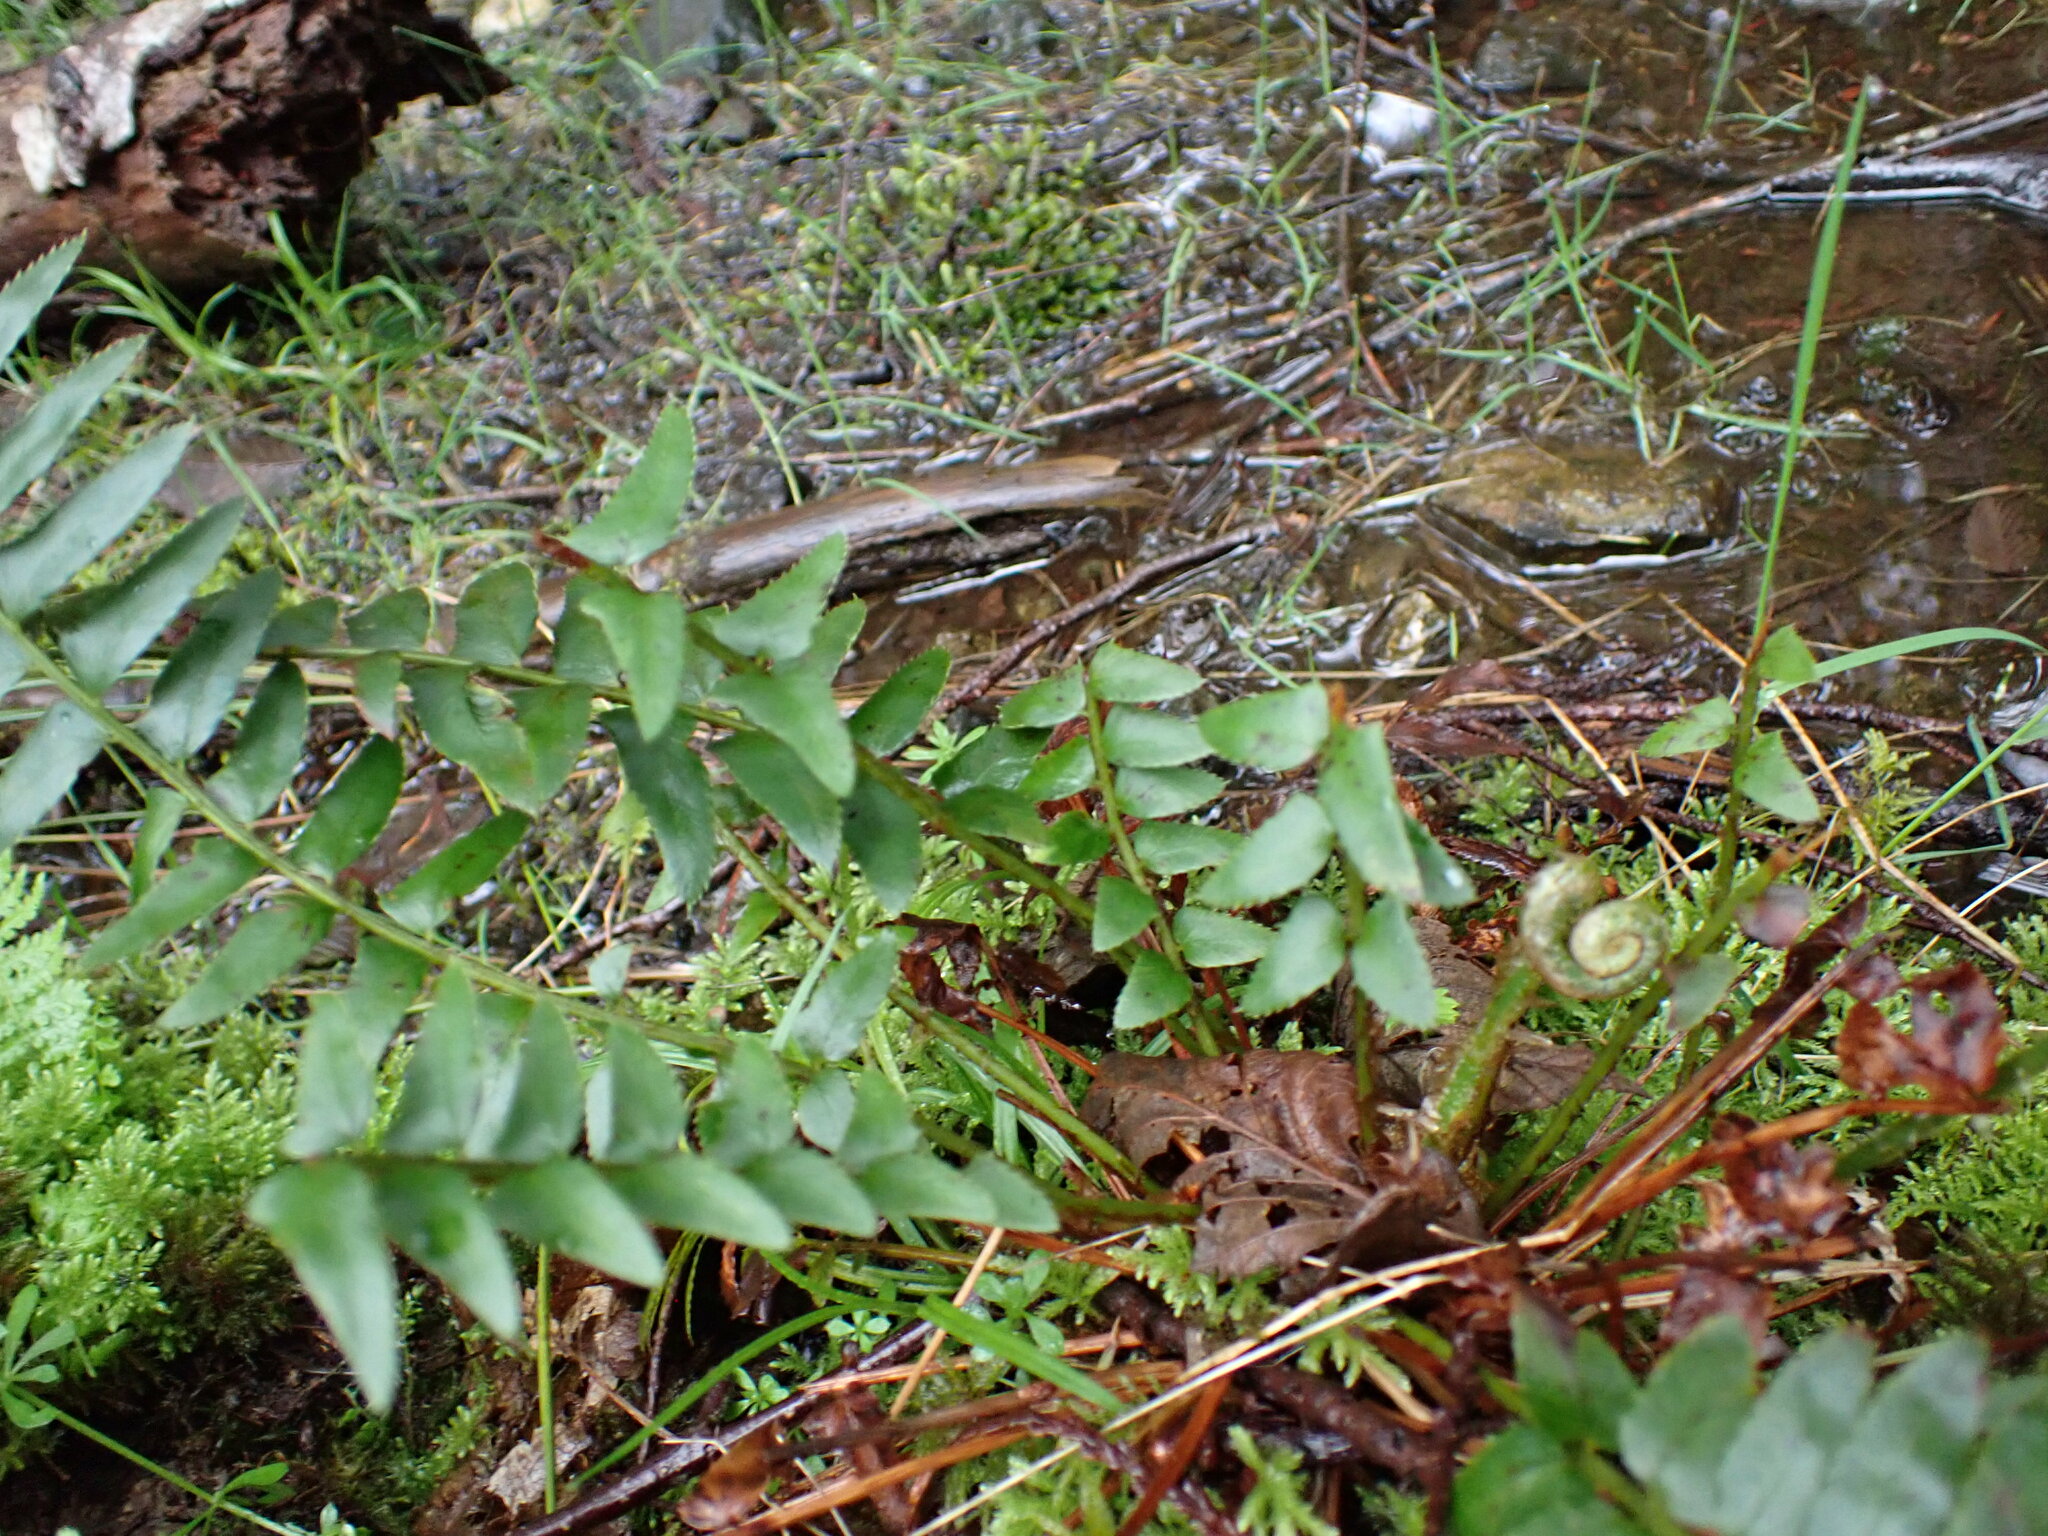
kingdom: Plantae
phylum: Tracheophyta
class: Polypodiopsida
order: Polypodiales
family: Dryopteridaceae
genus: Polystichum
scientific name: Polystichum munitum
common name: Western sword-fern
